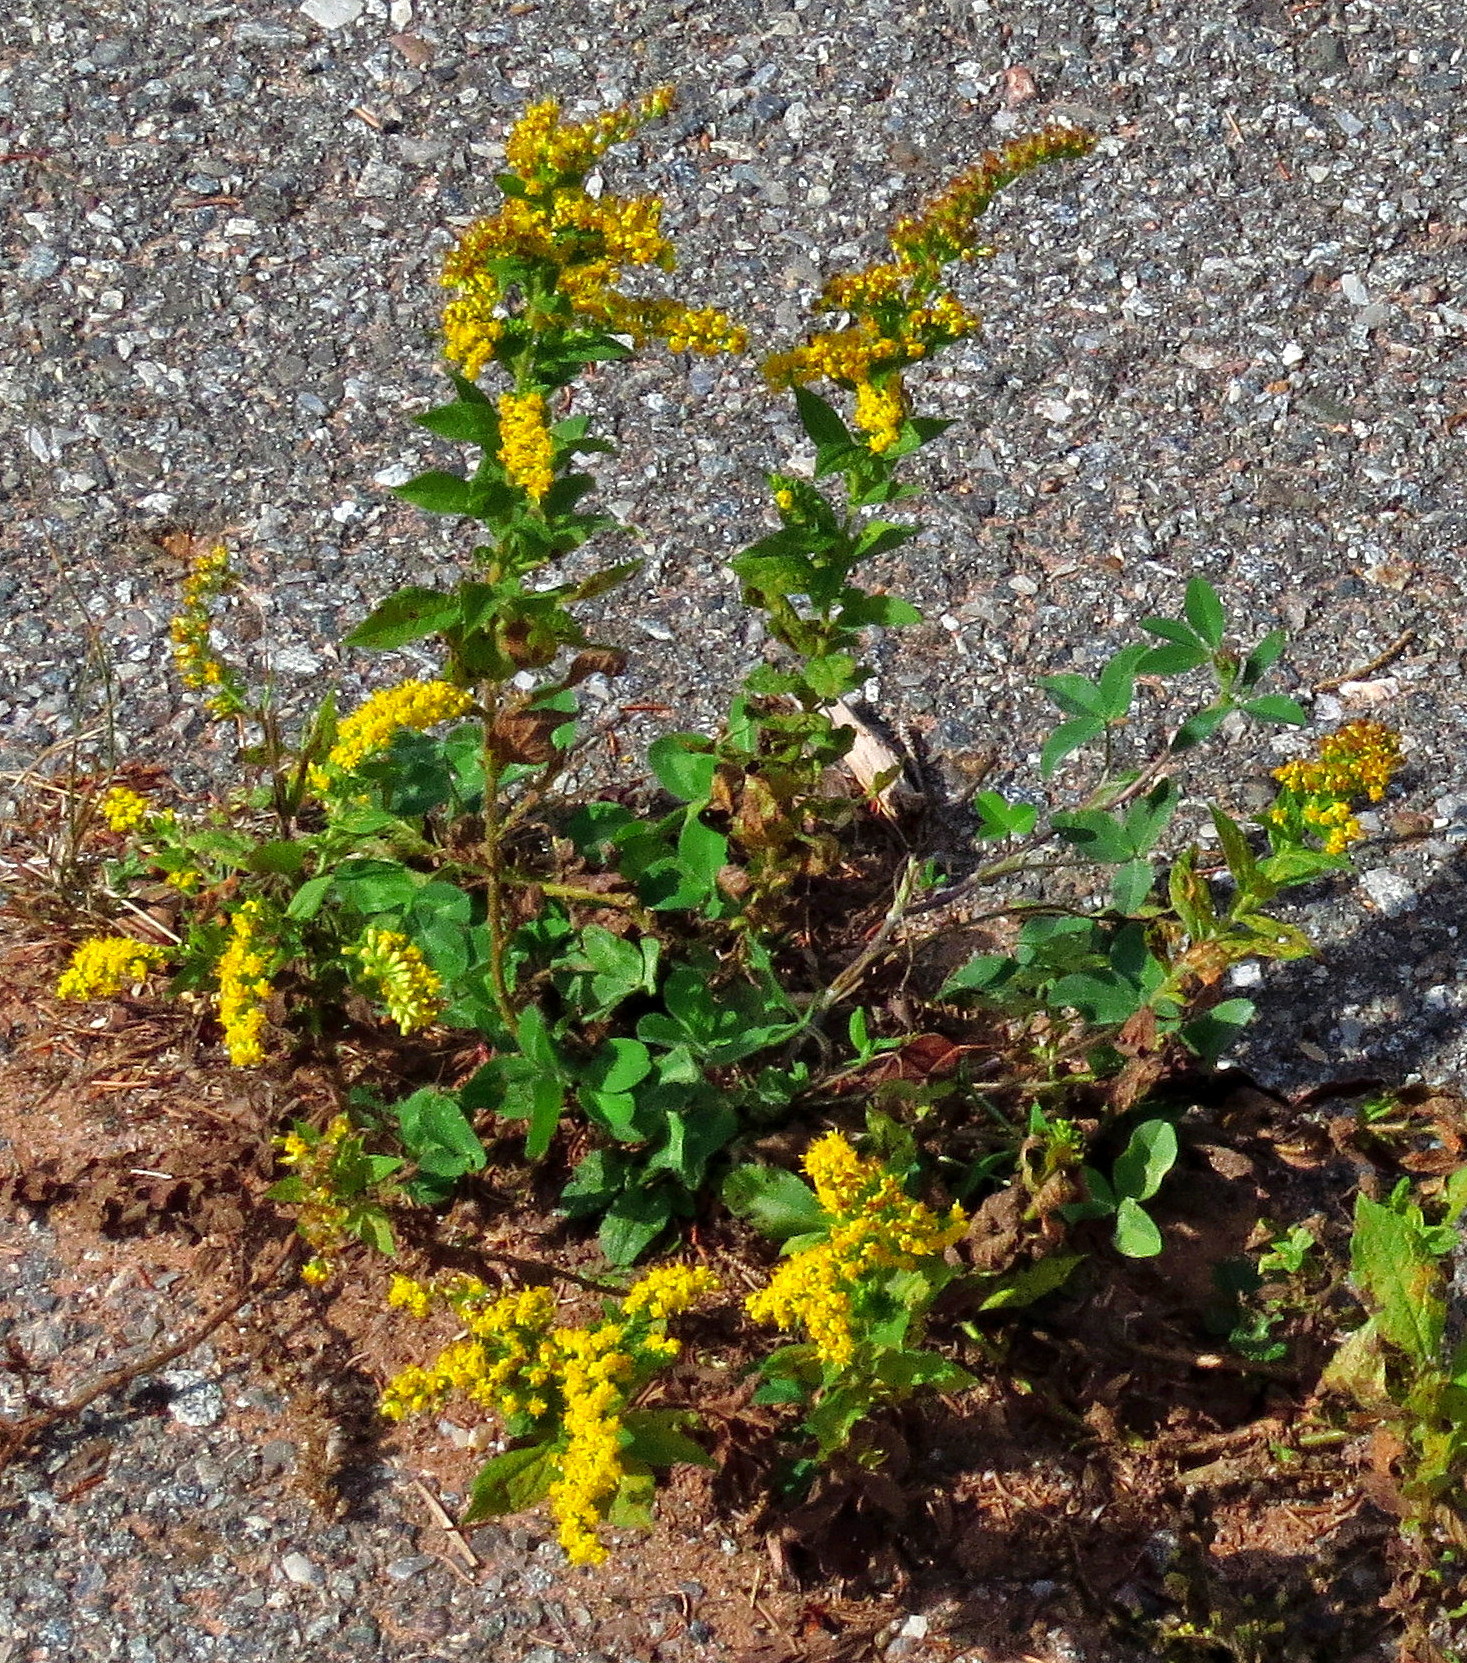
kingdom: Plantae
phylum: Tracheophyta
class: Magnoliopsida
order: Asterales
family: Asteraceae
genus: Solidago
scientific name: Solidago rugosa
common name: Rough-stemmed goldenrod
